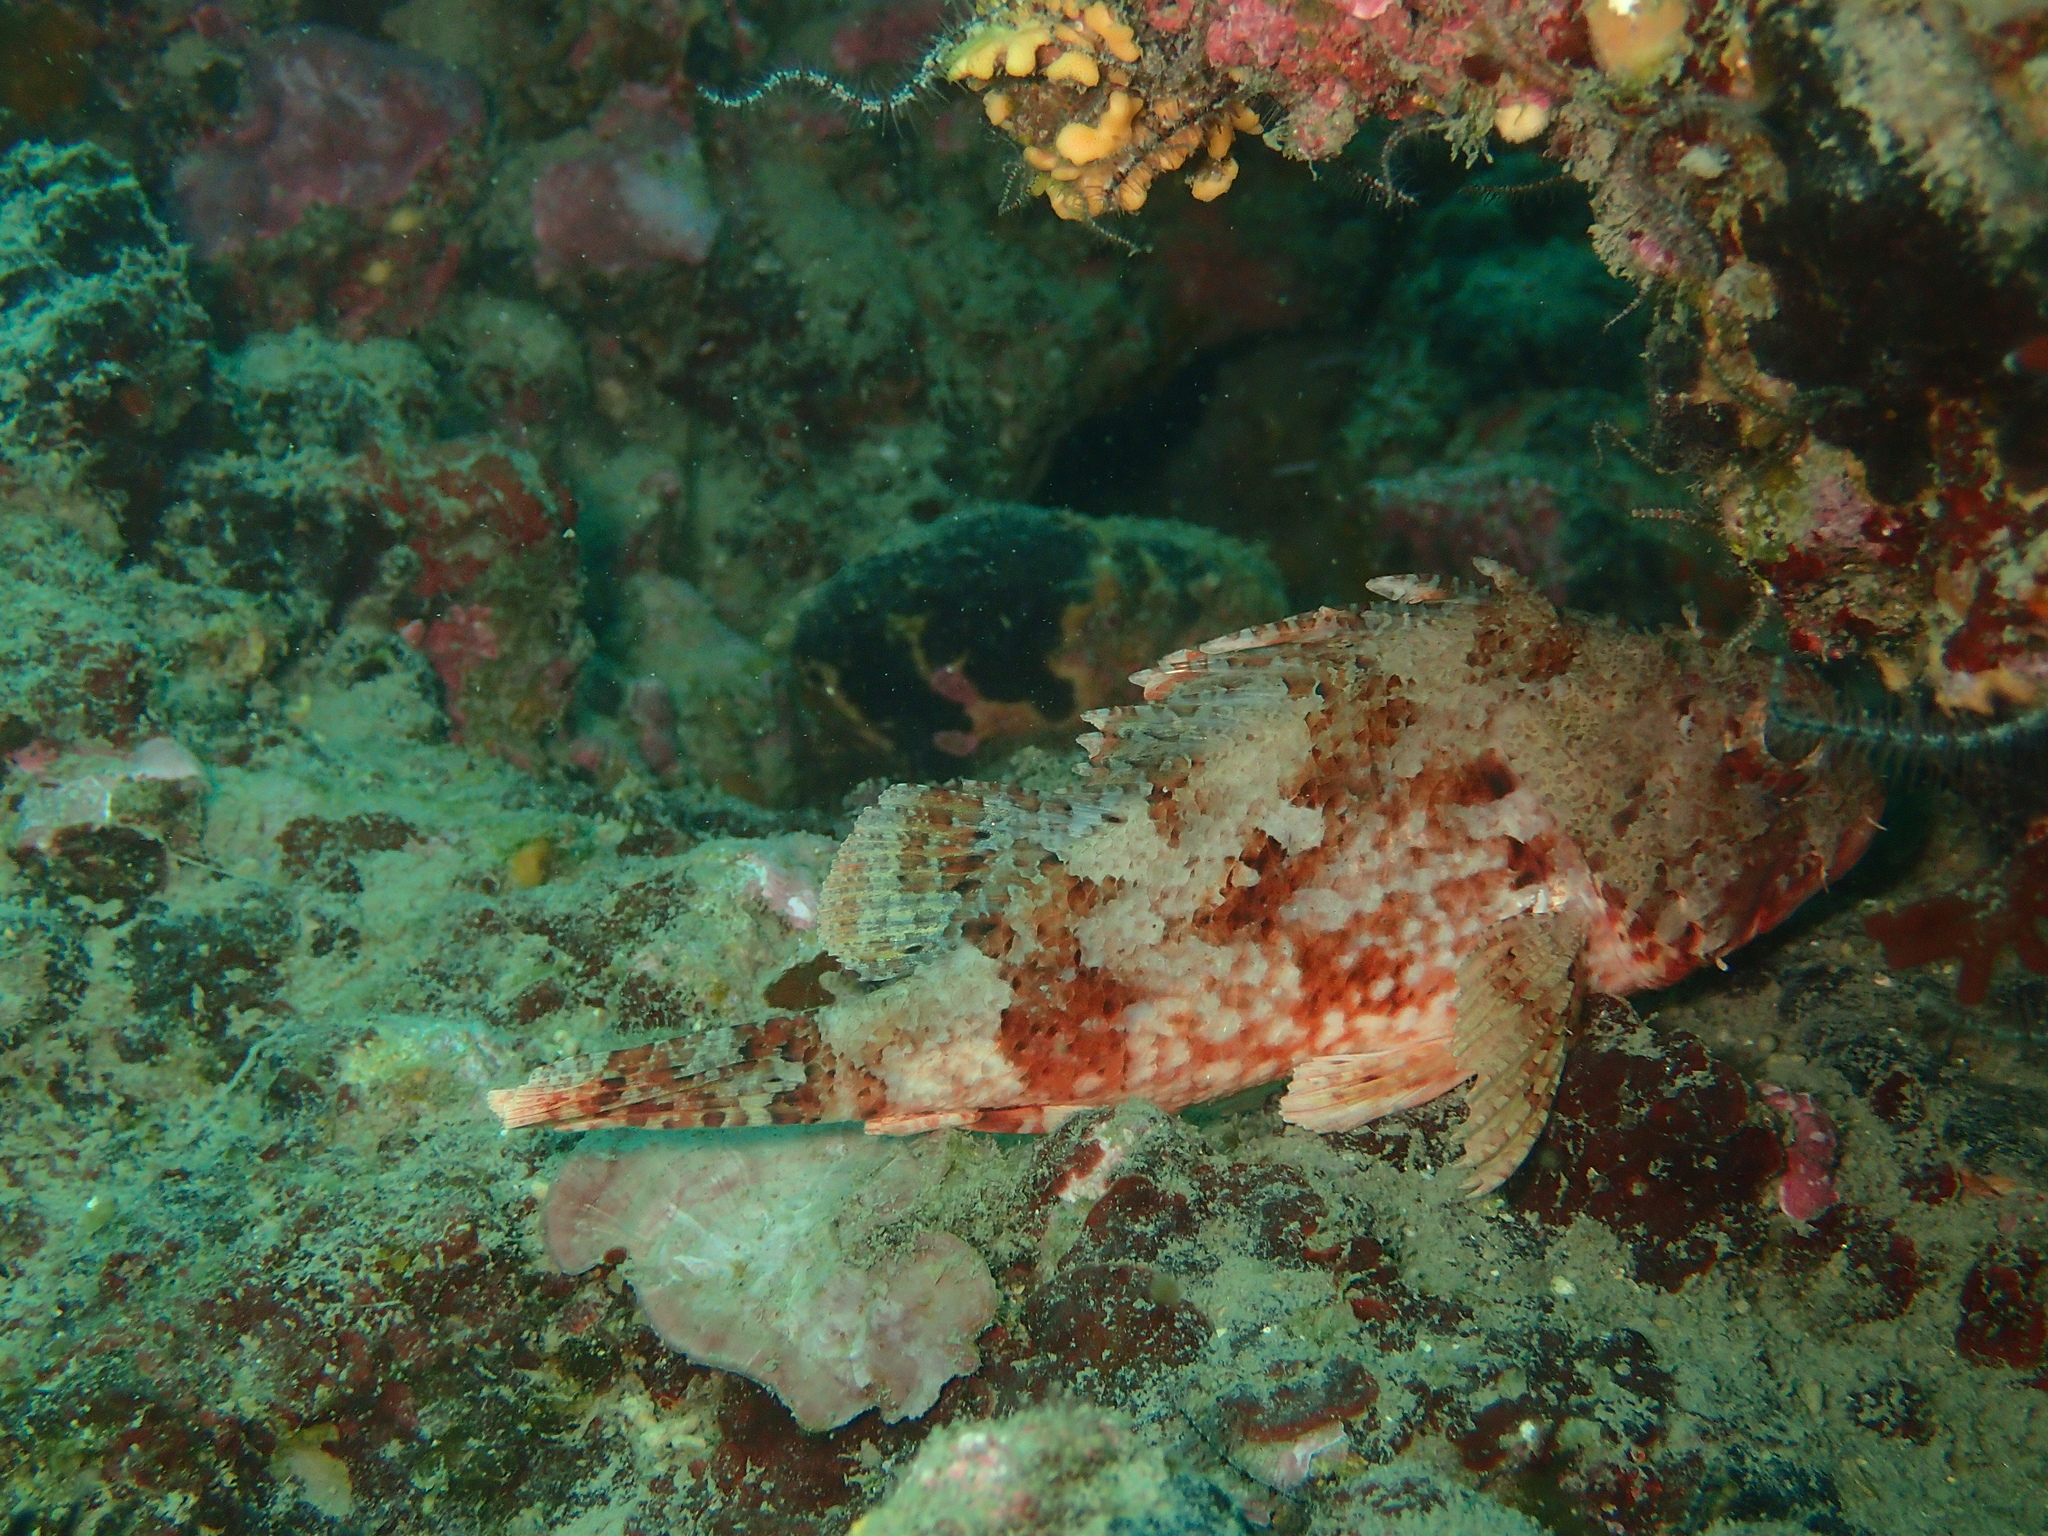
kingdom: Animalia
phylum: Chordata
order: Scorpaeniformes
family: Scorpaenidae
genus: Scorpaena
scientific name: Scorpaena notata
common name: Small red scorpionfish
